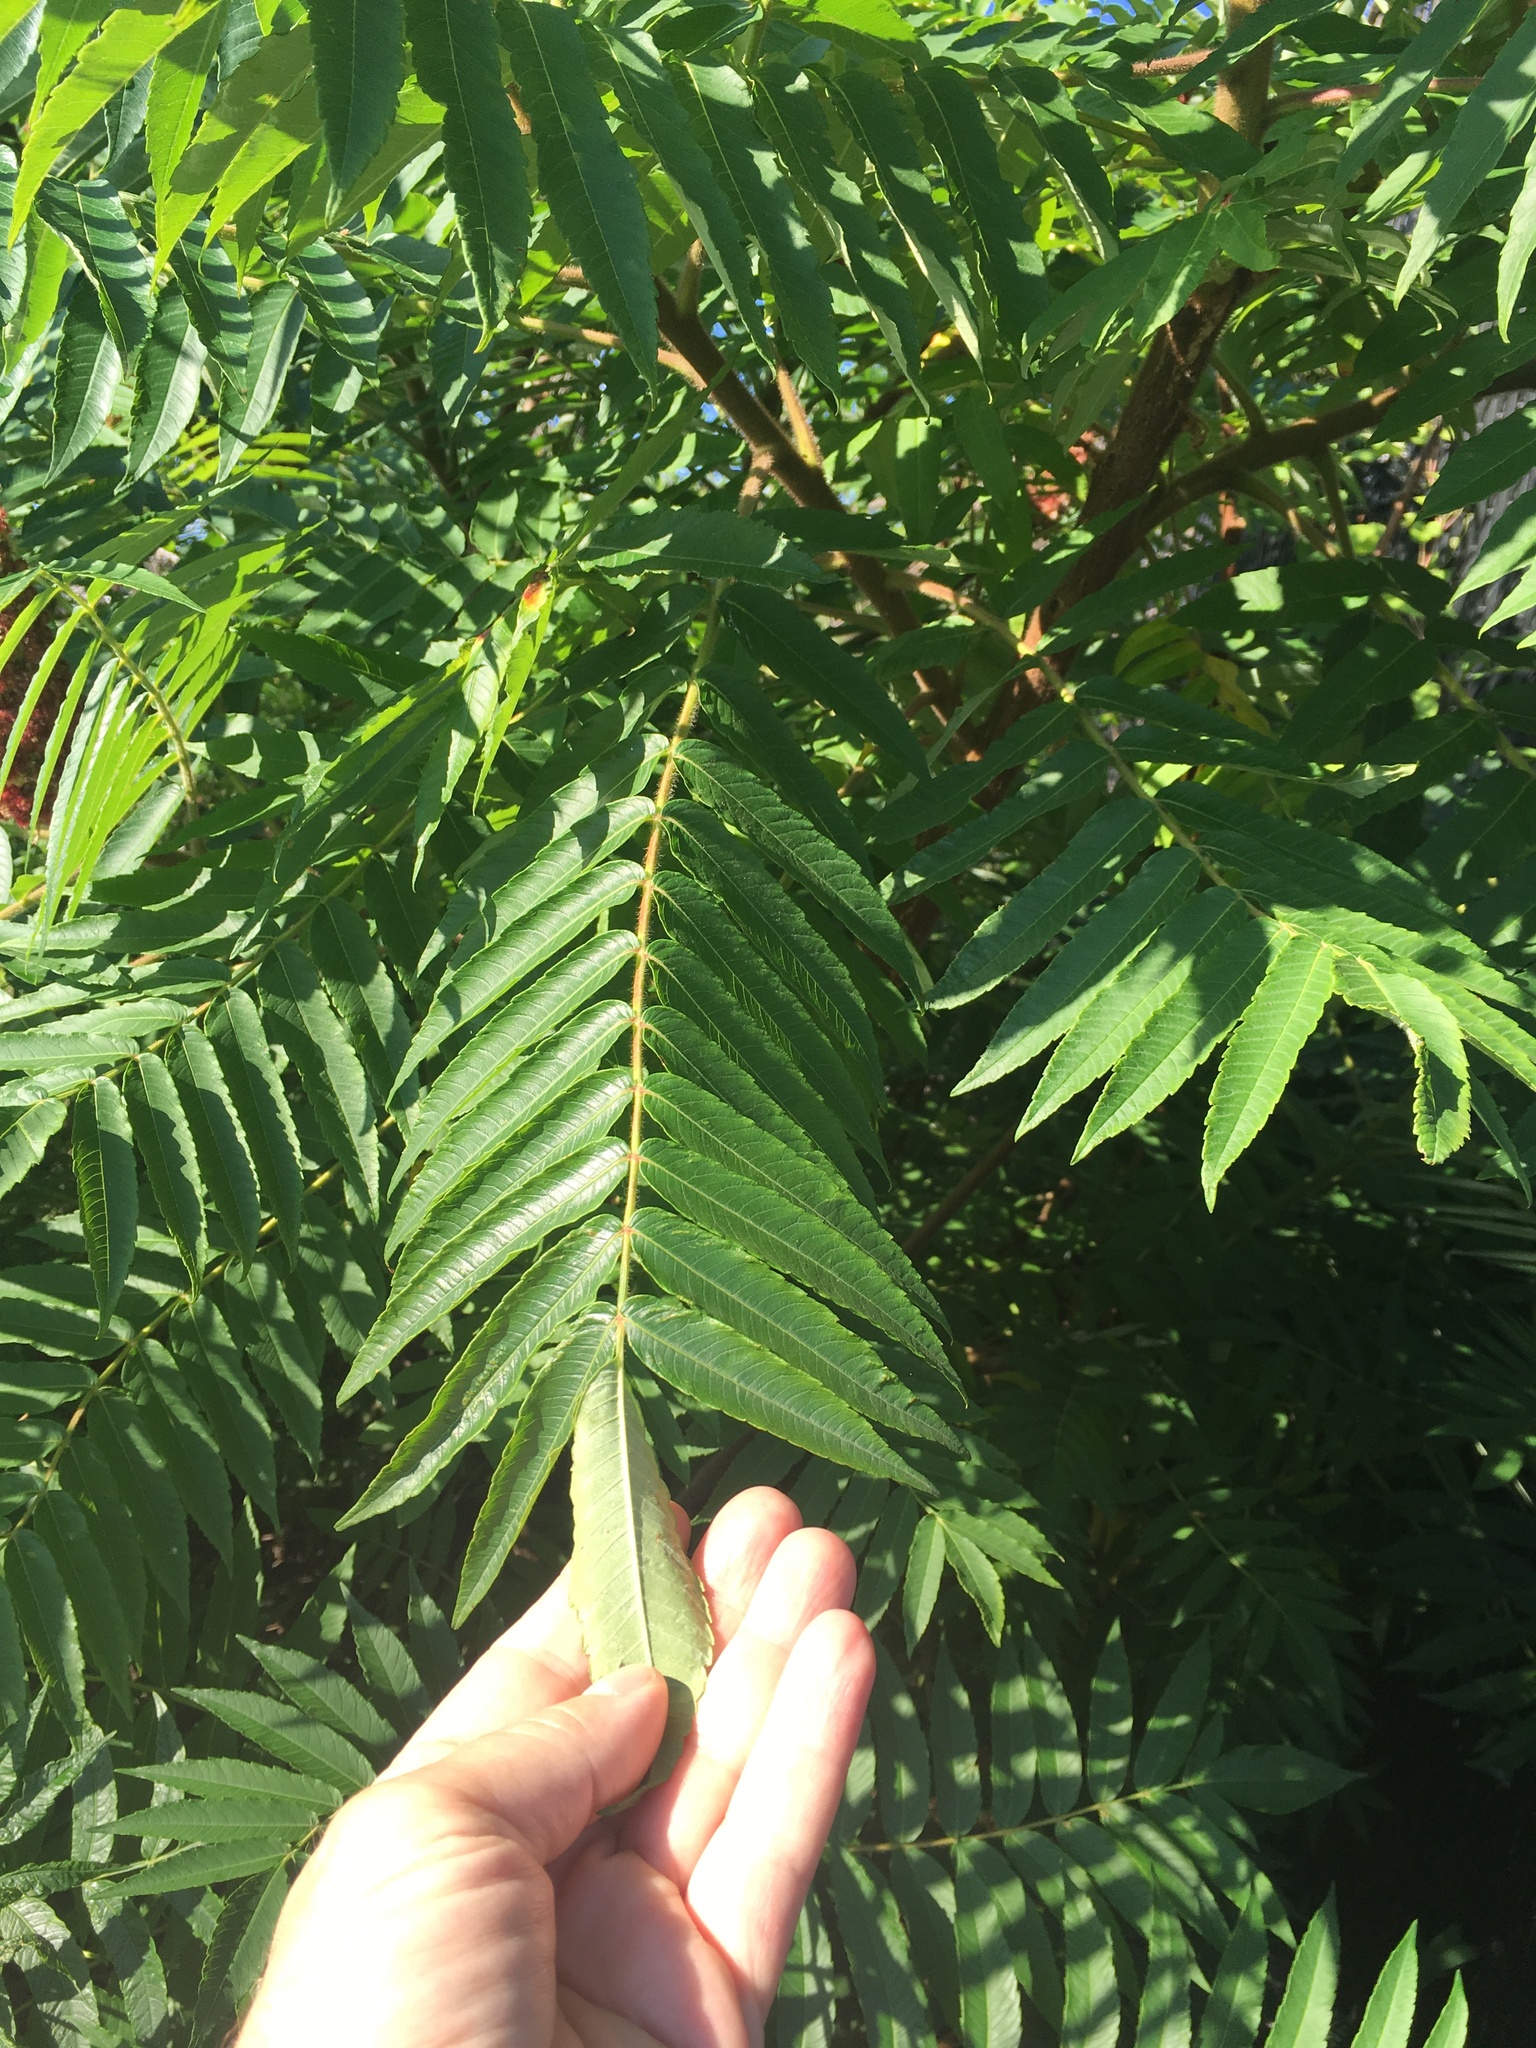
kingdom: Plantae
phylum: Tracheophyta
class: Magnoliopsida
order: Sapindales
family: Anacardiaceae
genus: Rhus
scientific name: Rhus typhina
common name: Staghorn sumac
